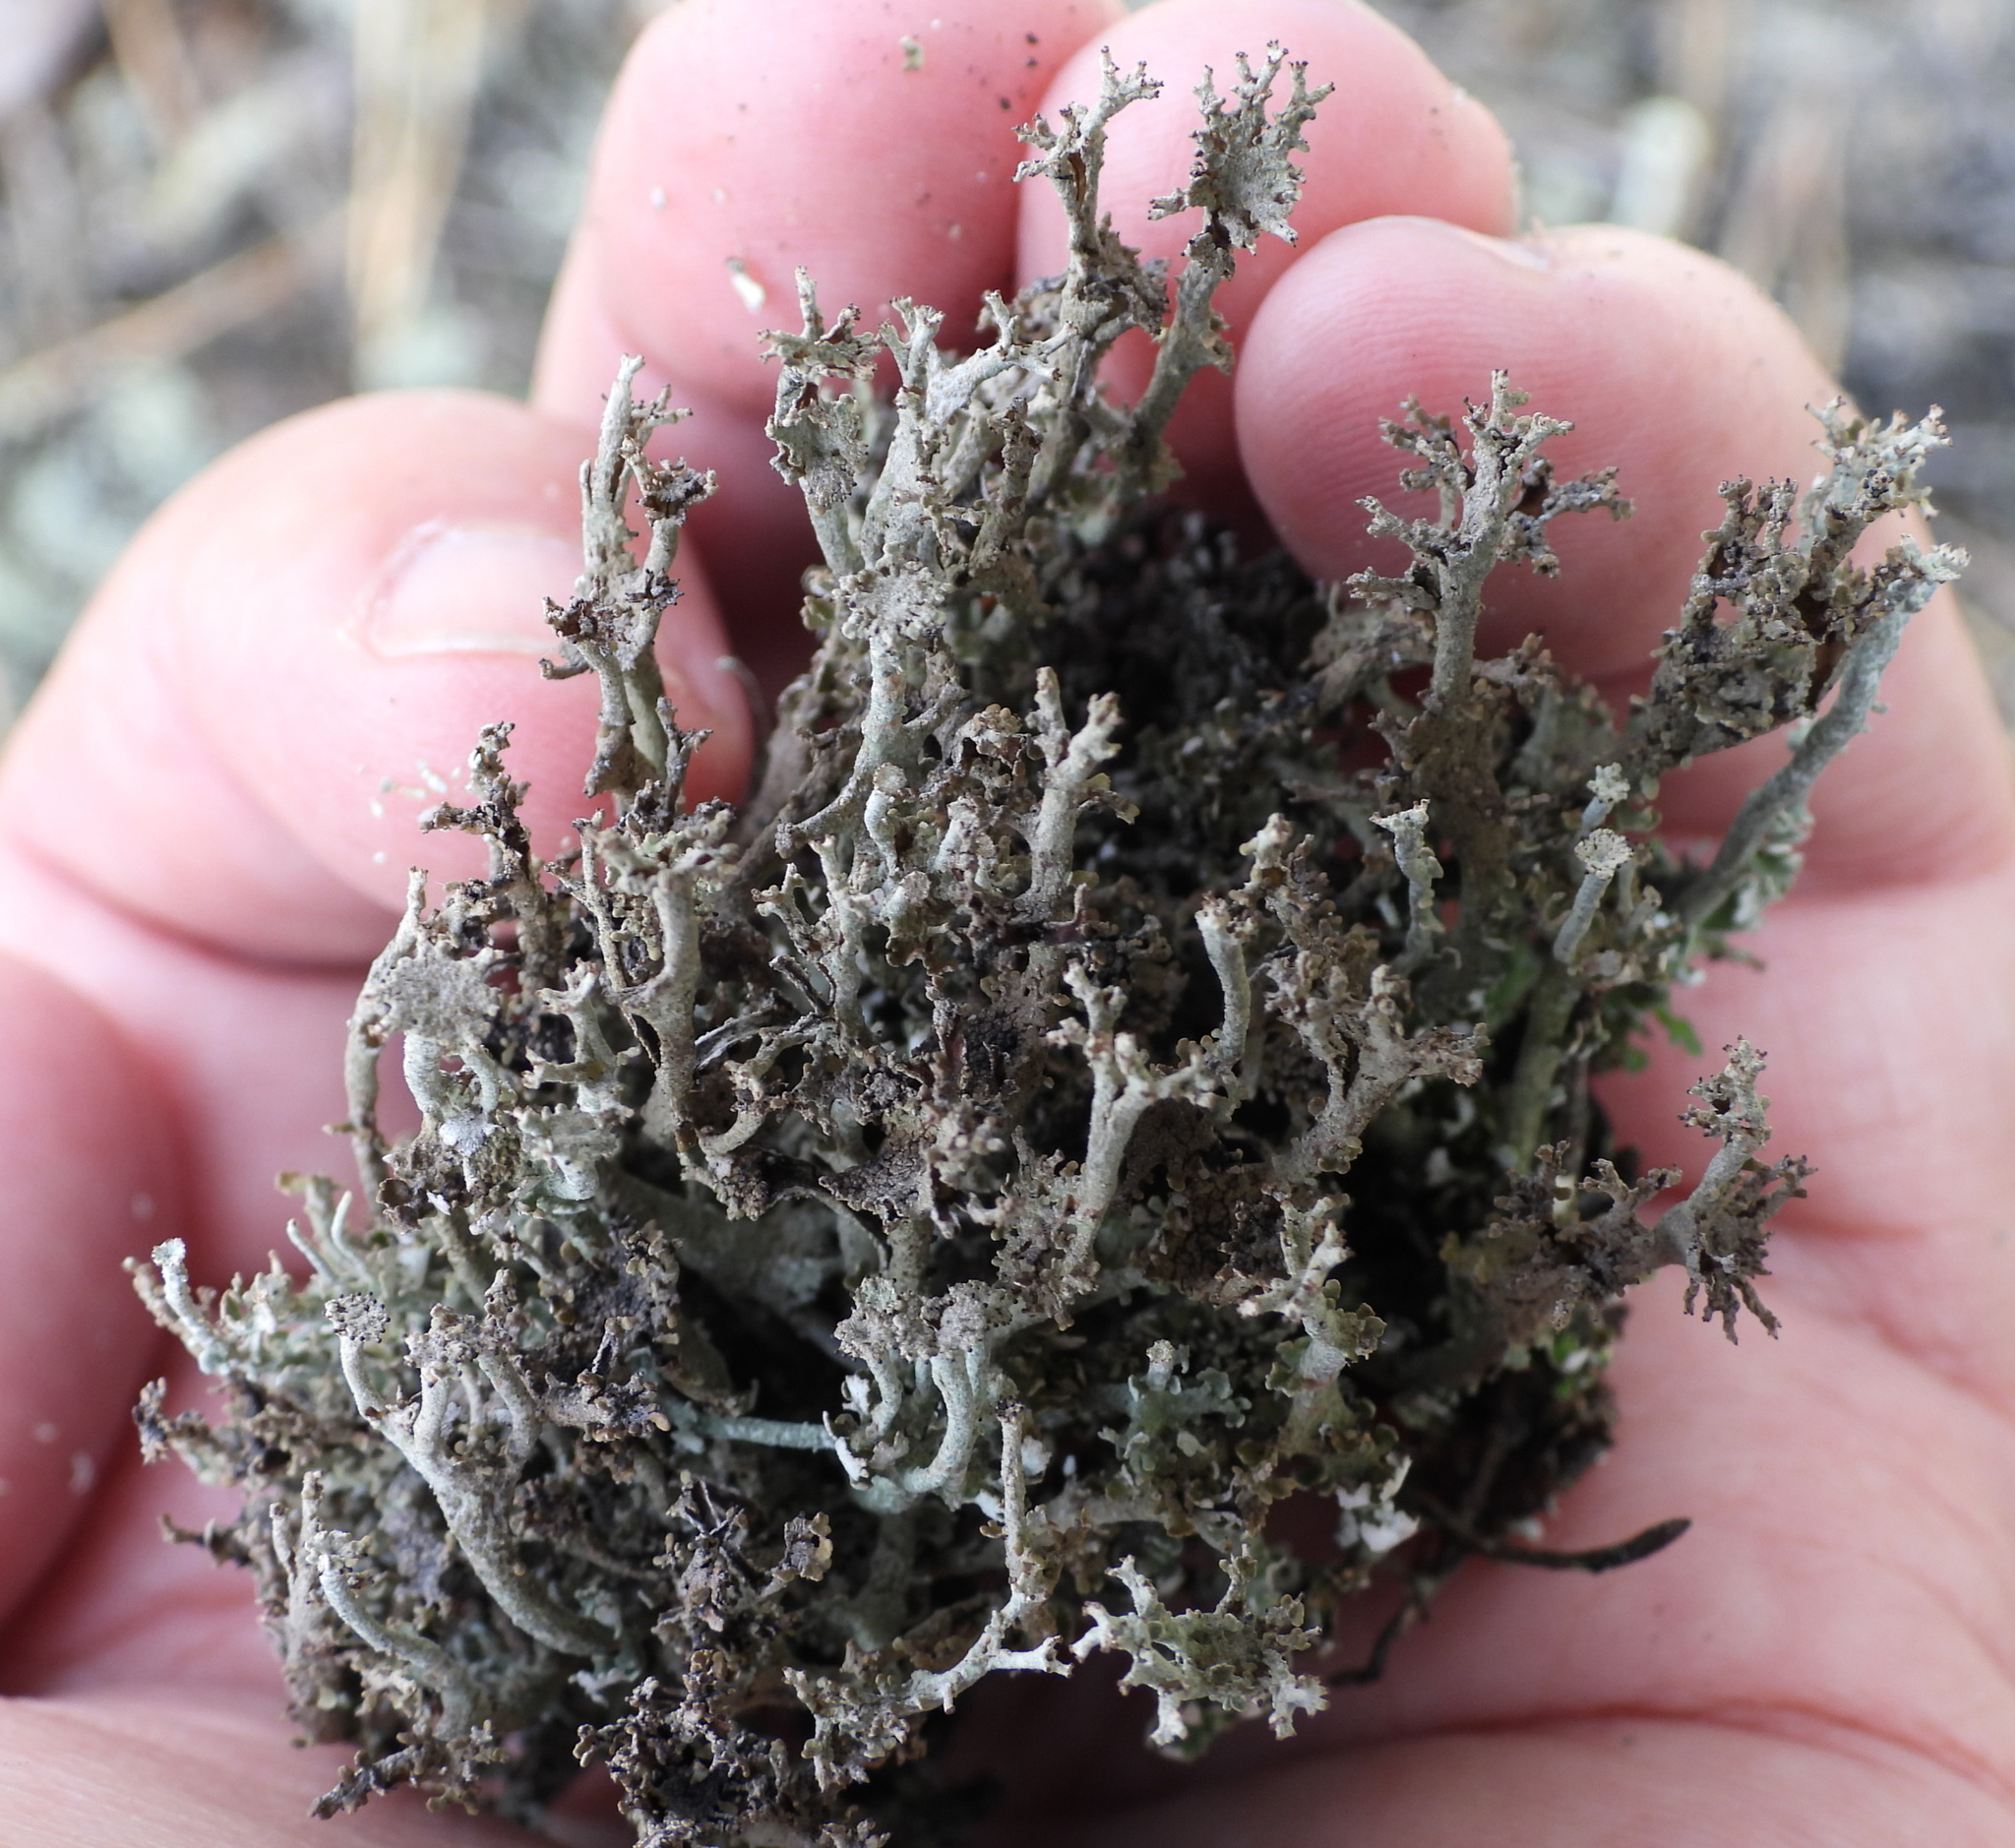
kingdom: Fungi
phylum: Ascomycota
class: Lecanoromycetes
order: Lecanorales
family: Cladoniaceae
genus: Cladonia
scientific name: Cladonia phyllophora
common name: Felt clad lichen
